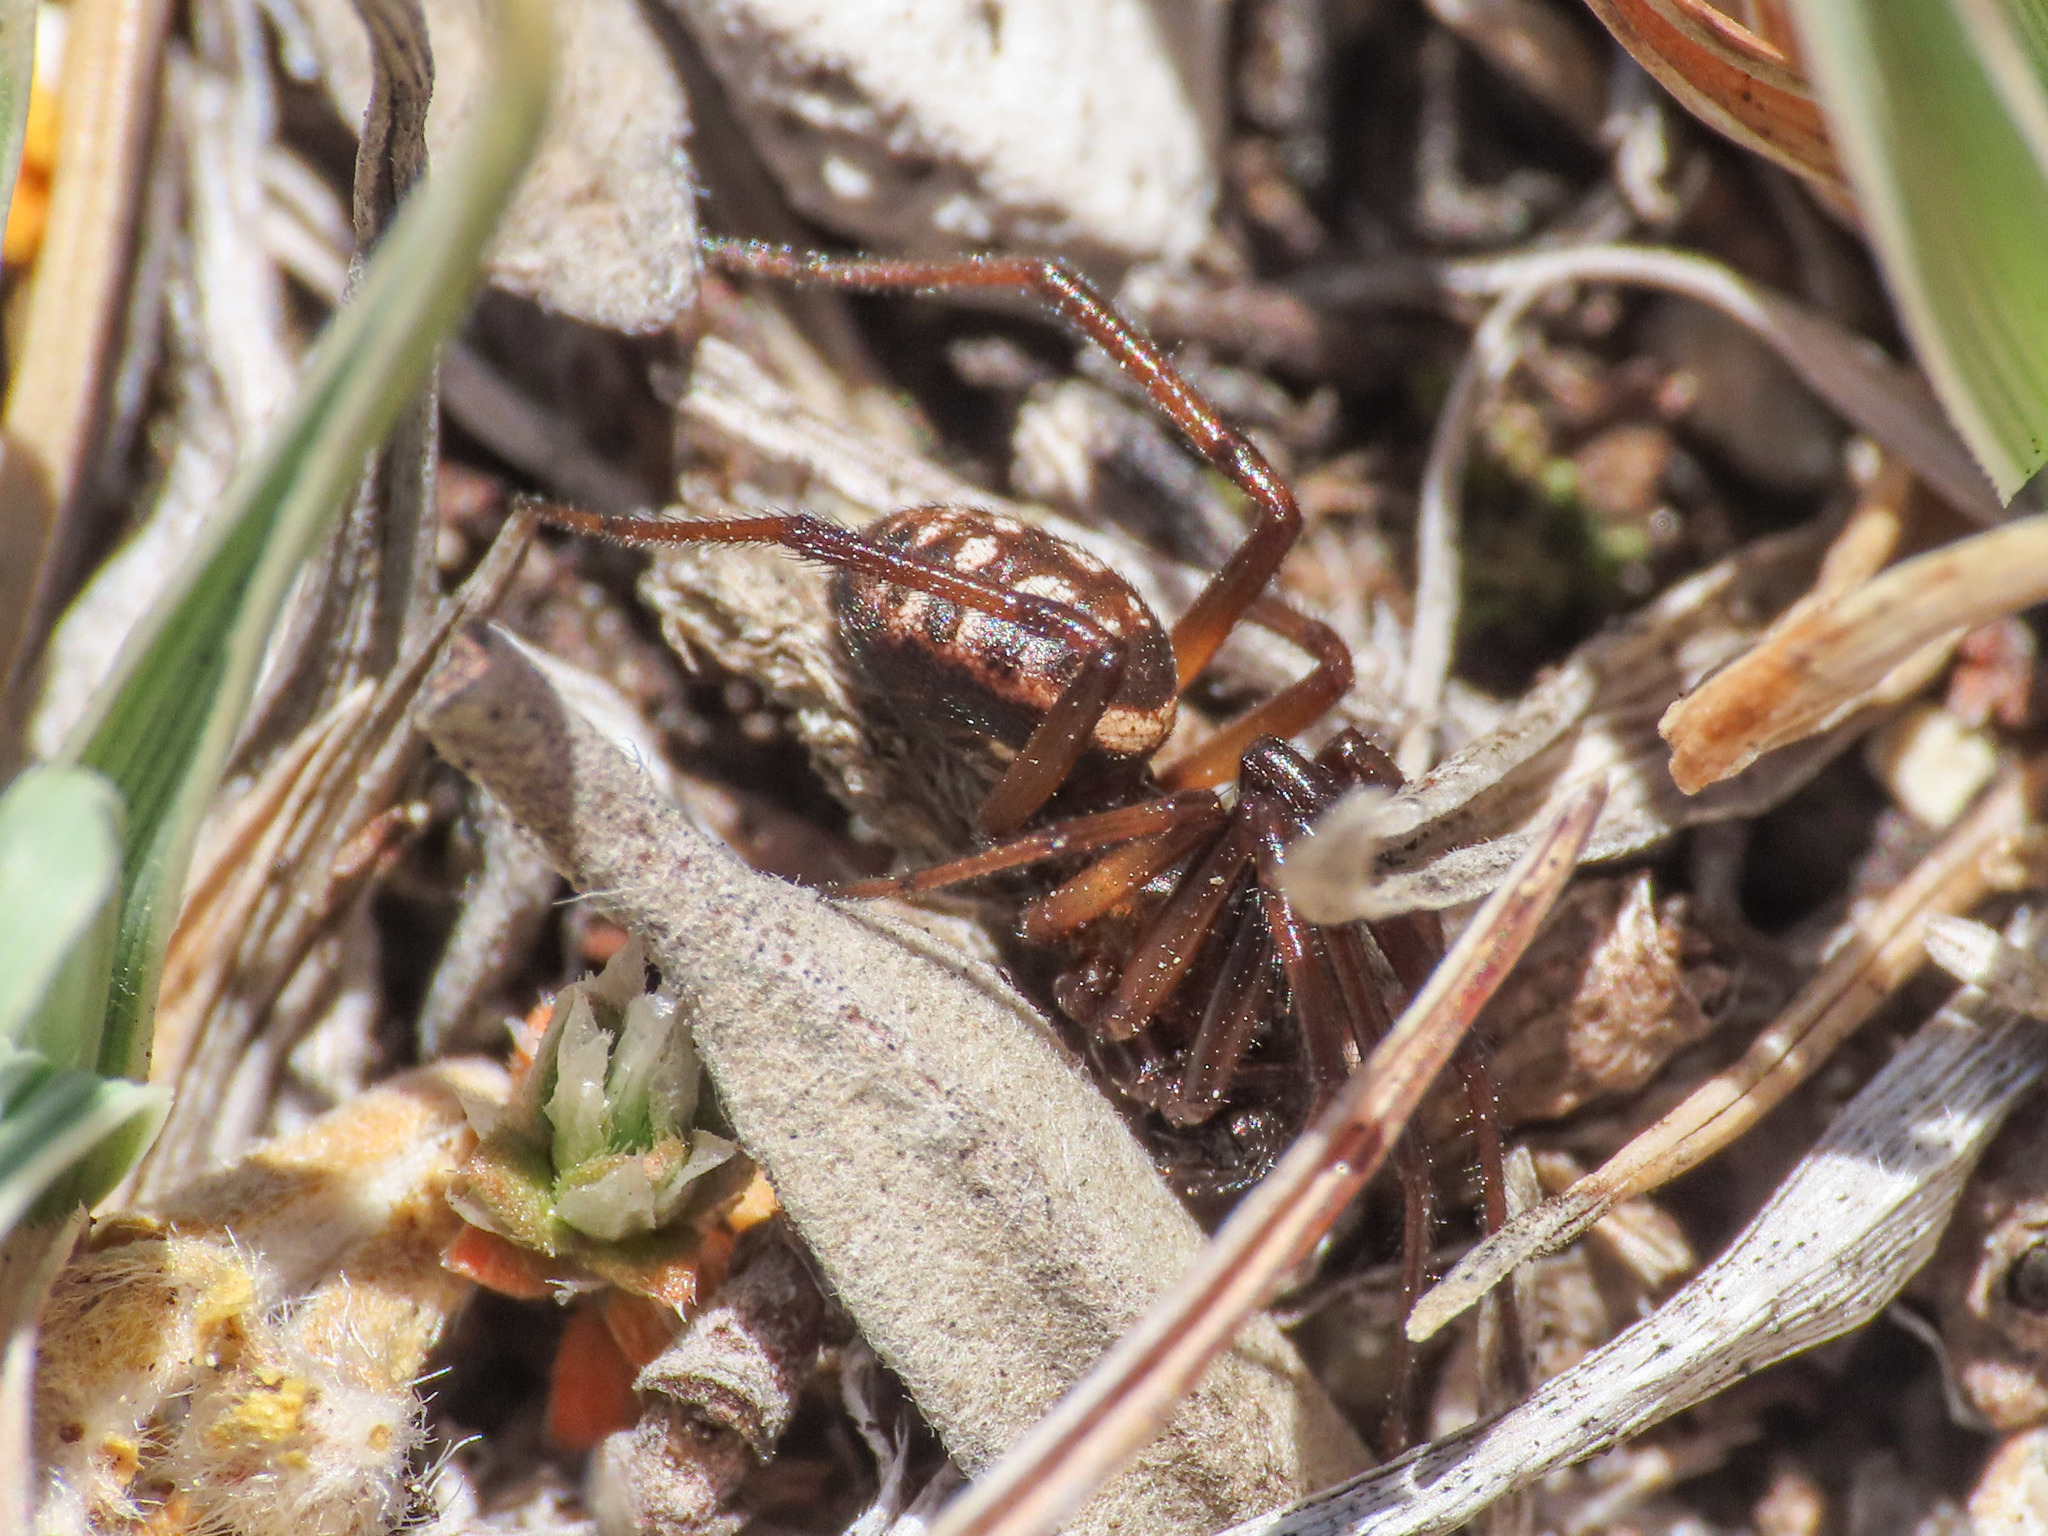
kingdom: Animalia
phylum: Arthropoda
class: Arachnida
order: Araneae
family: Theridiidae
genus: Steatoda
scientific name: Steatoda albomaculata
